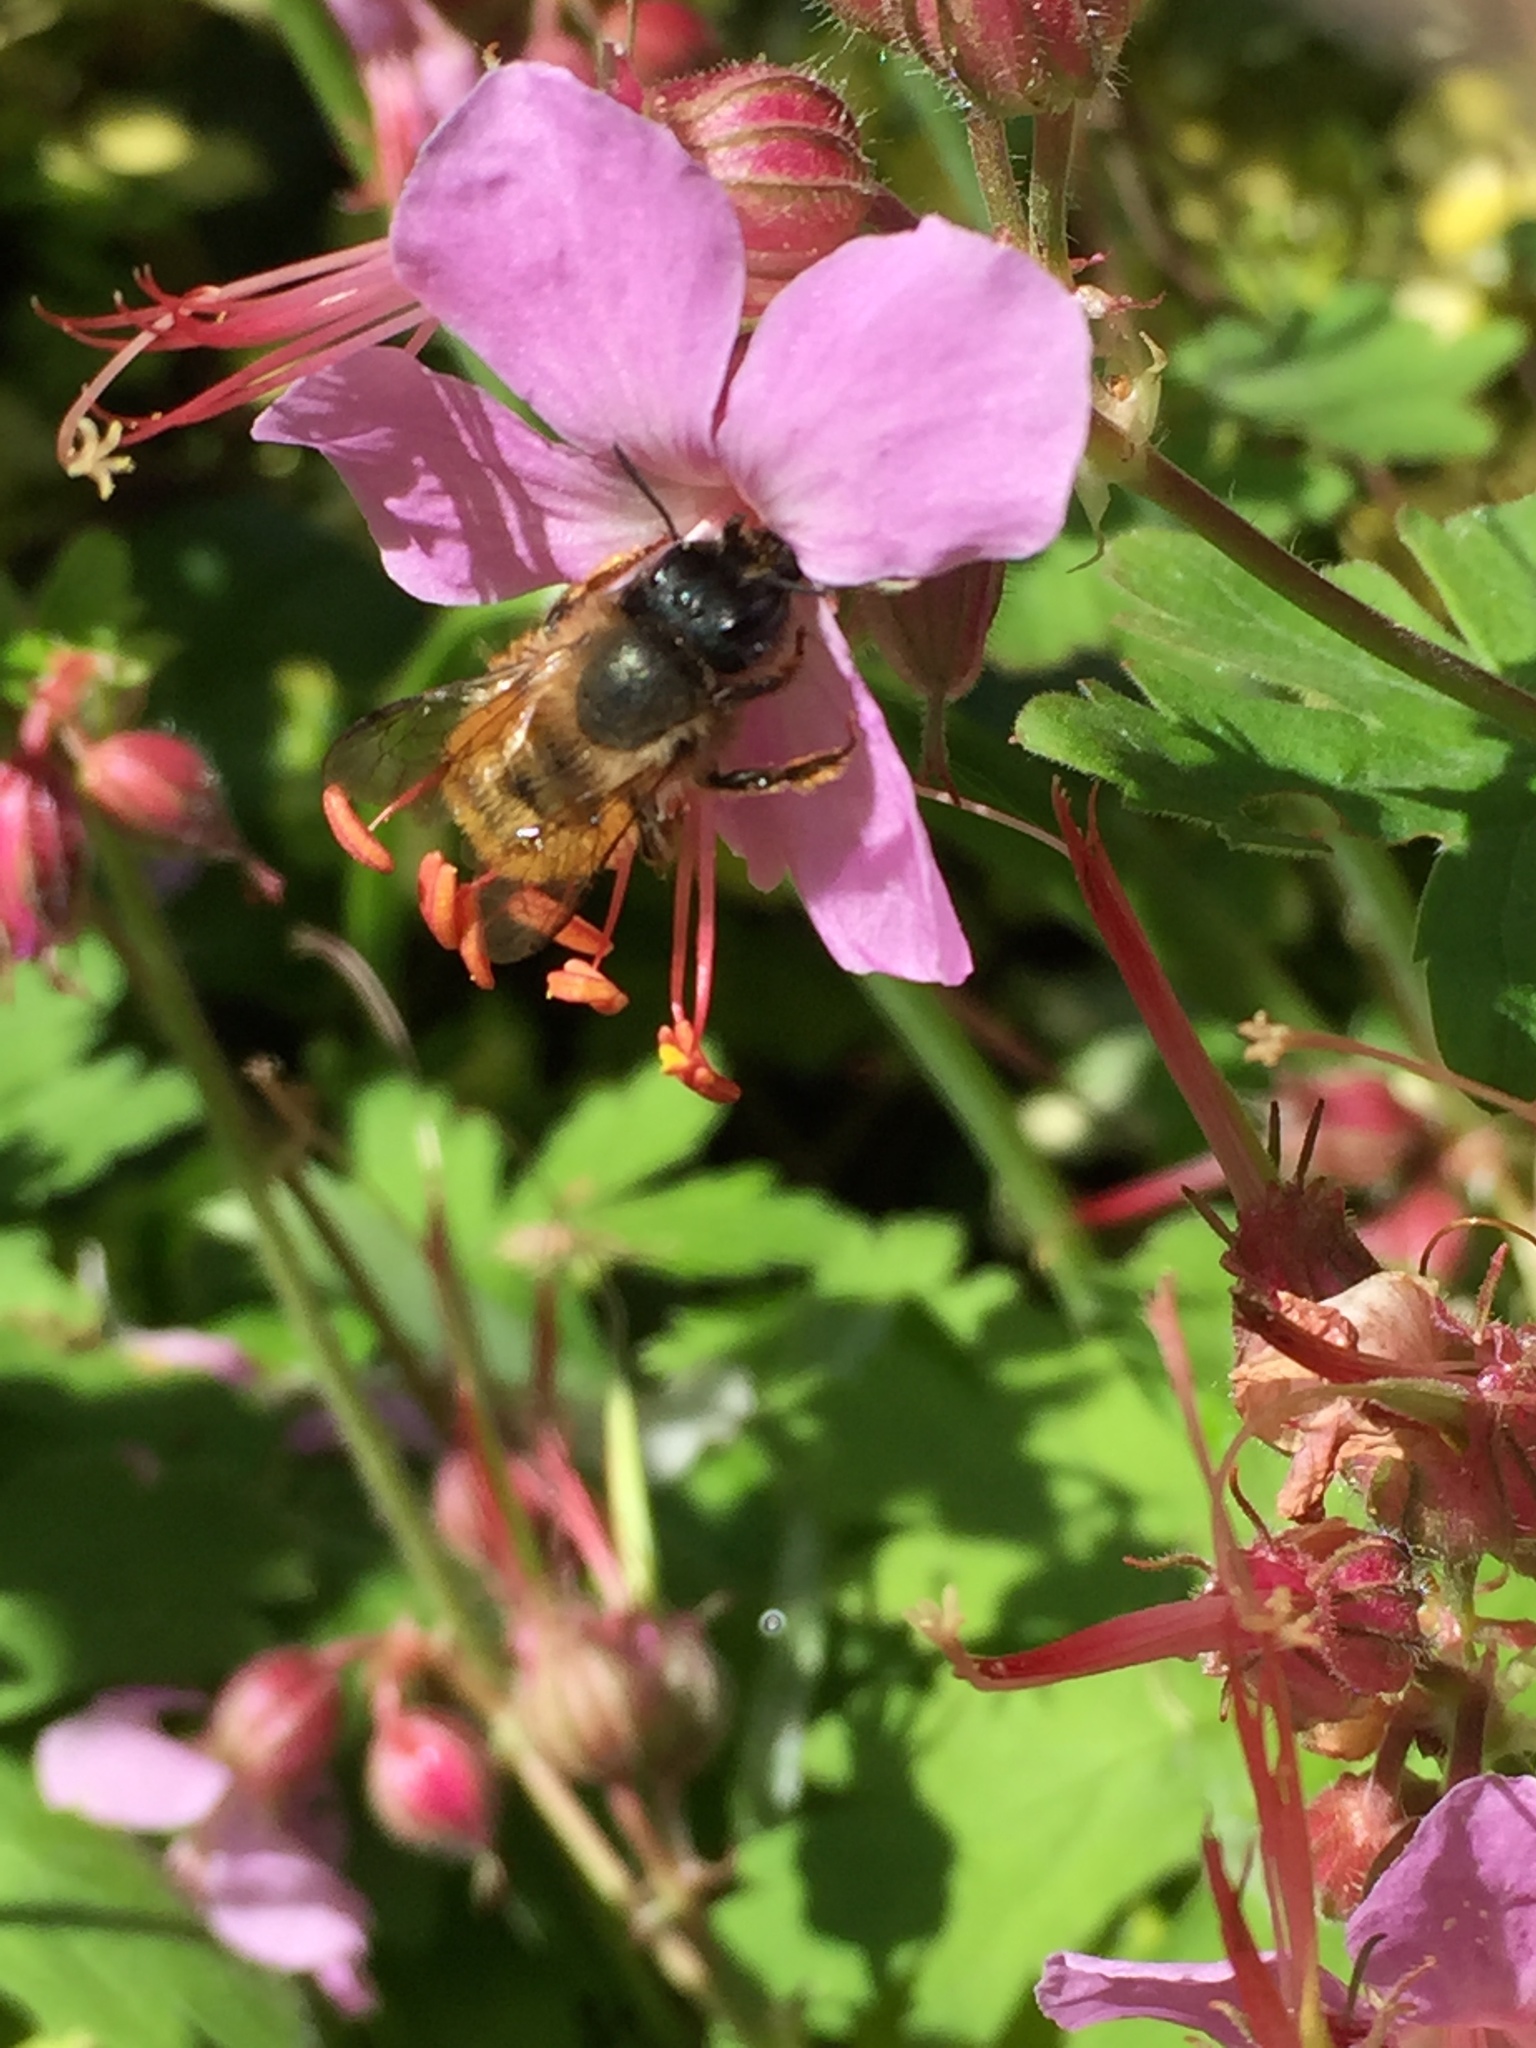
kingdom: Animalia
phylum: Arthropoda
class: Insecta
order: Hymenoptera
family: Megachilidae
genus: Osmia
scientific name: Osmia bicornis
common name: Red mason bee
